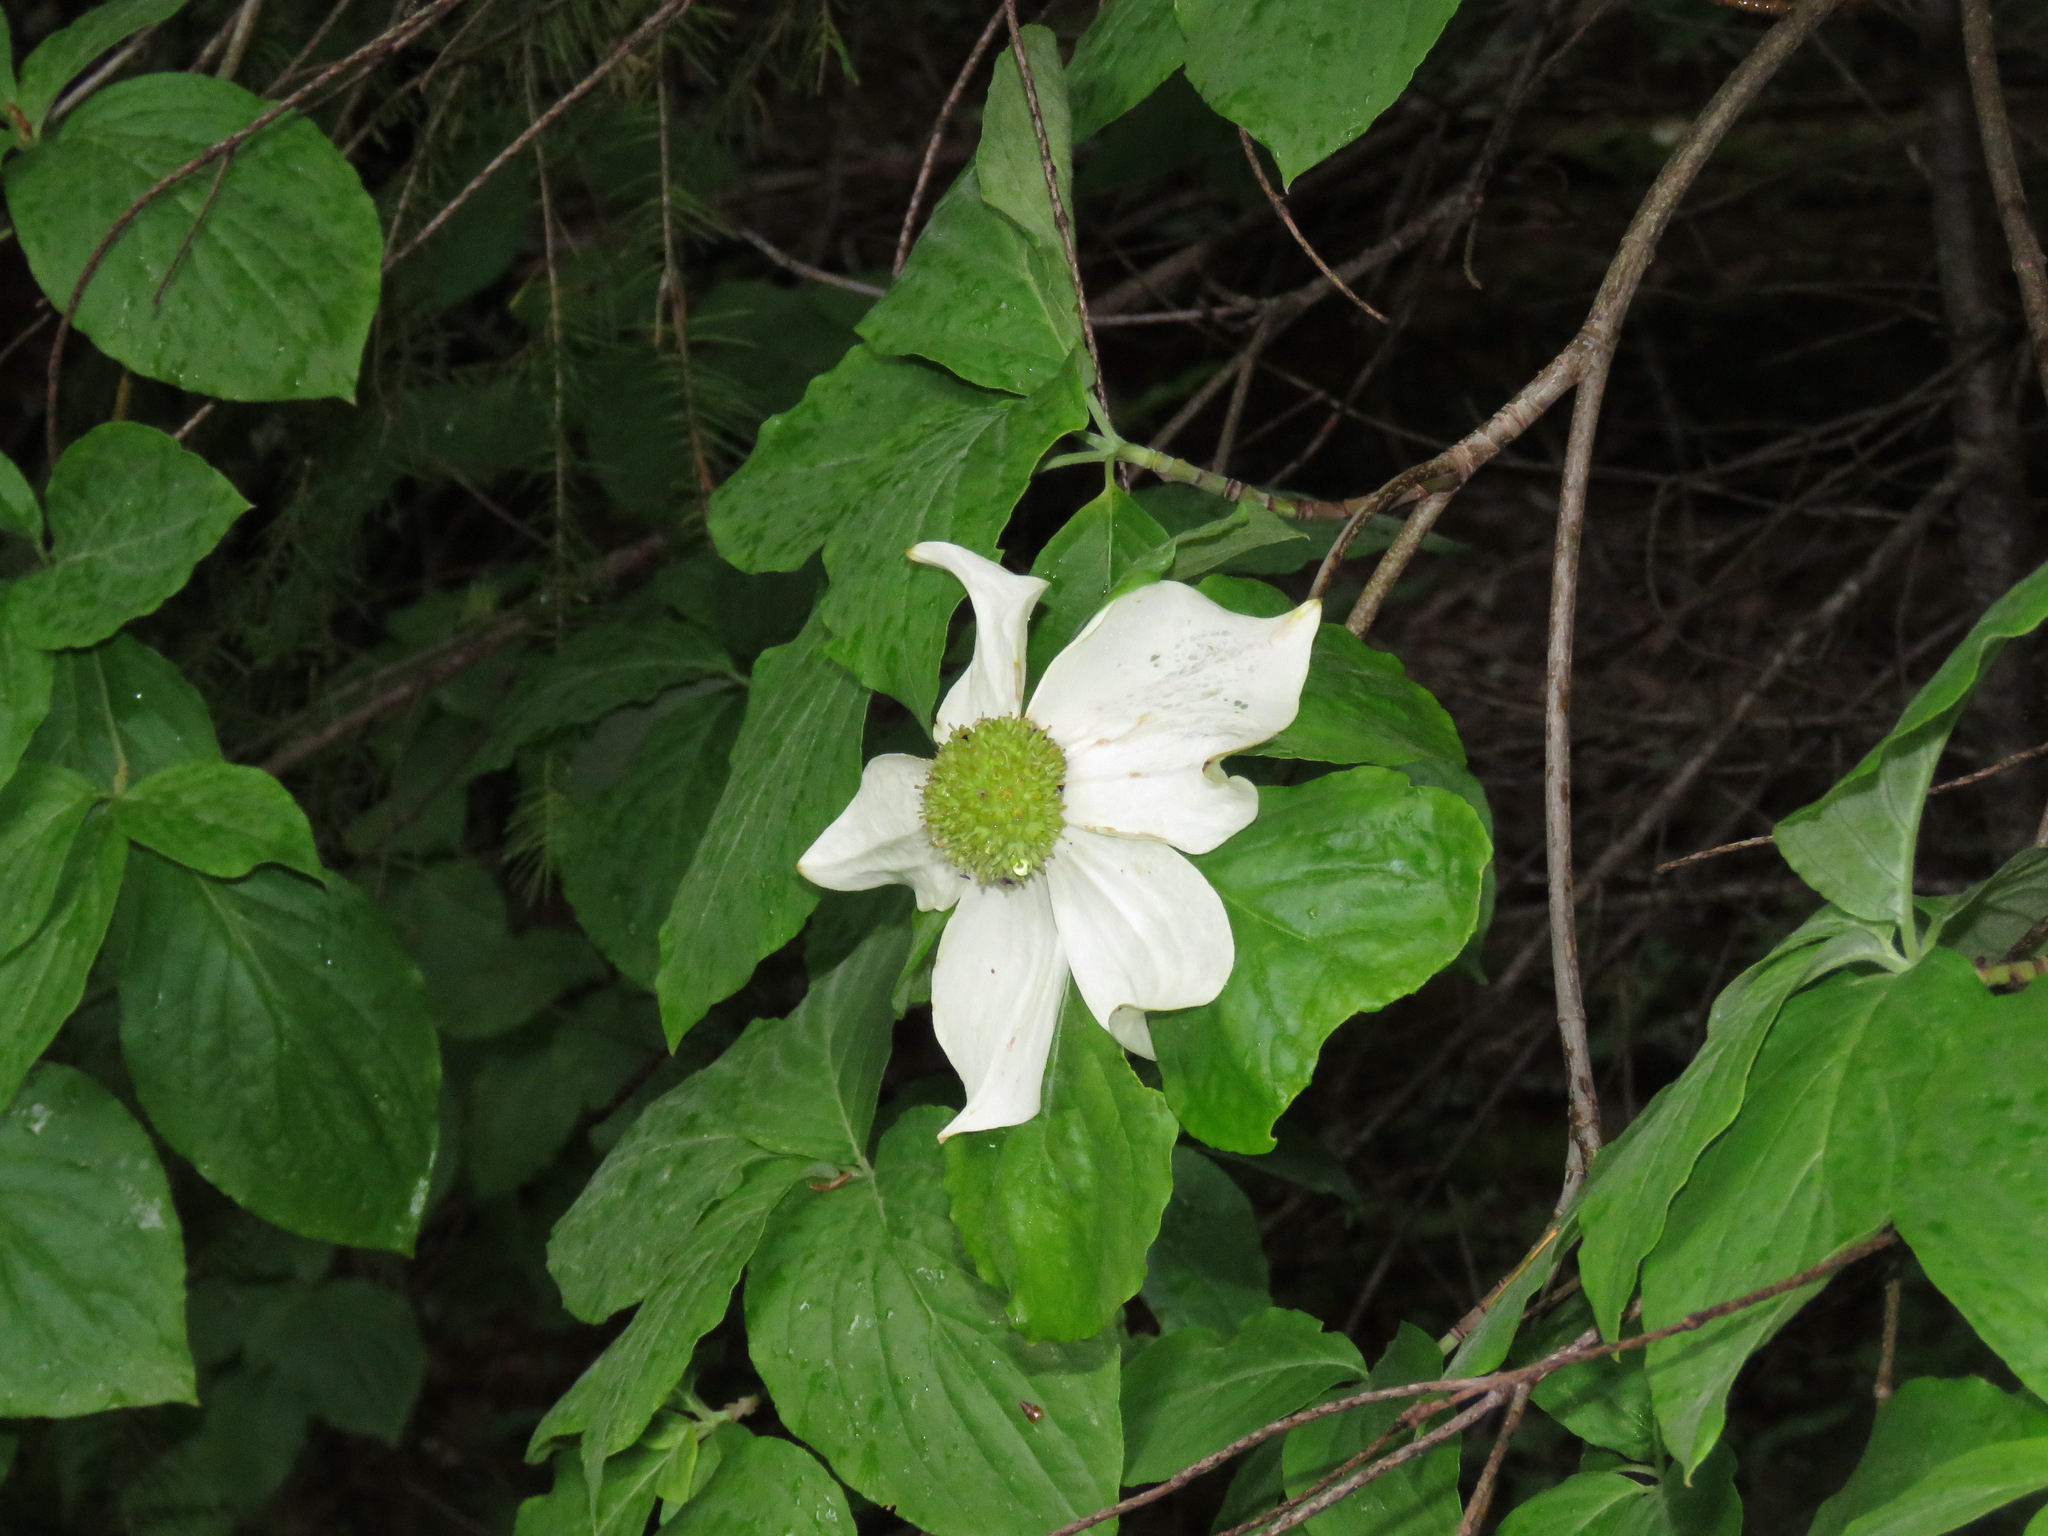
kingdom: Plantae
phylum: Tracheophyta
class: Magnoliopsida
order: Cornales
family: Cornaceae
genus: Cornus
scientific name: Cornus nuttallii
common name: Pacific dogwood
